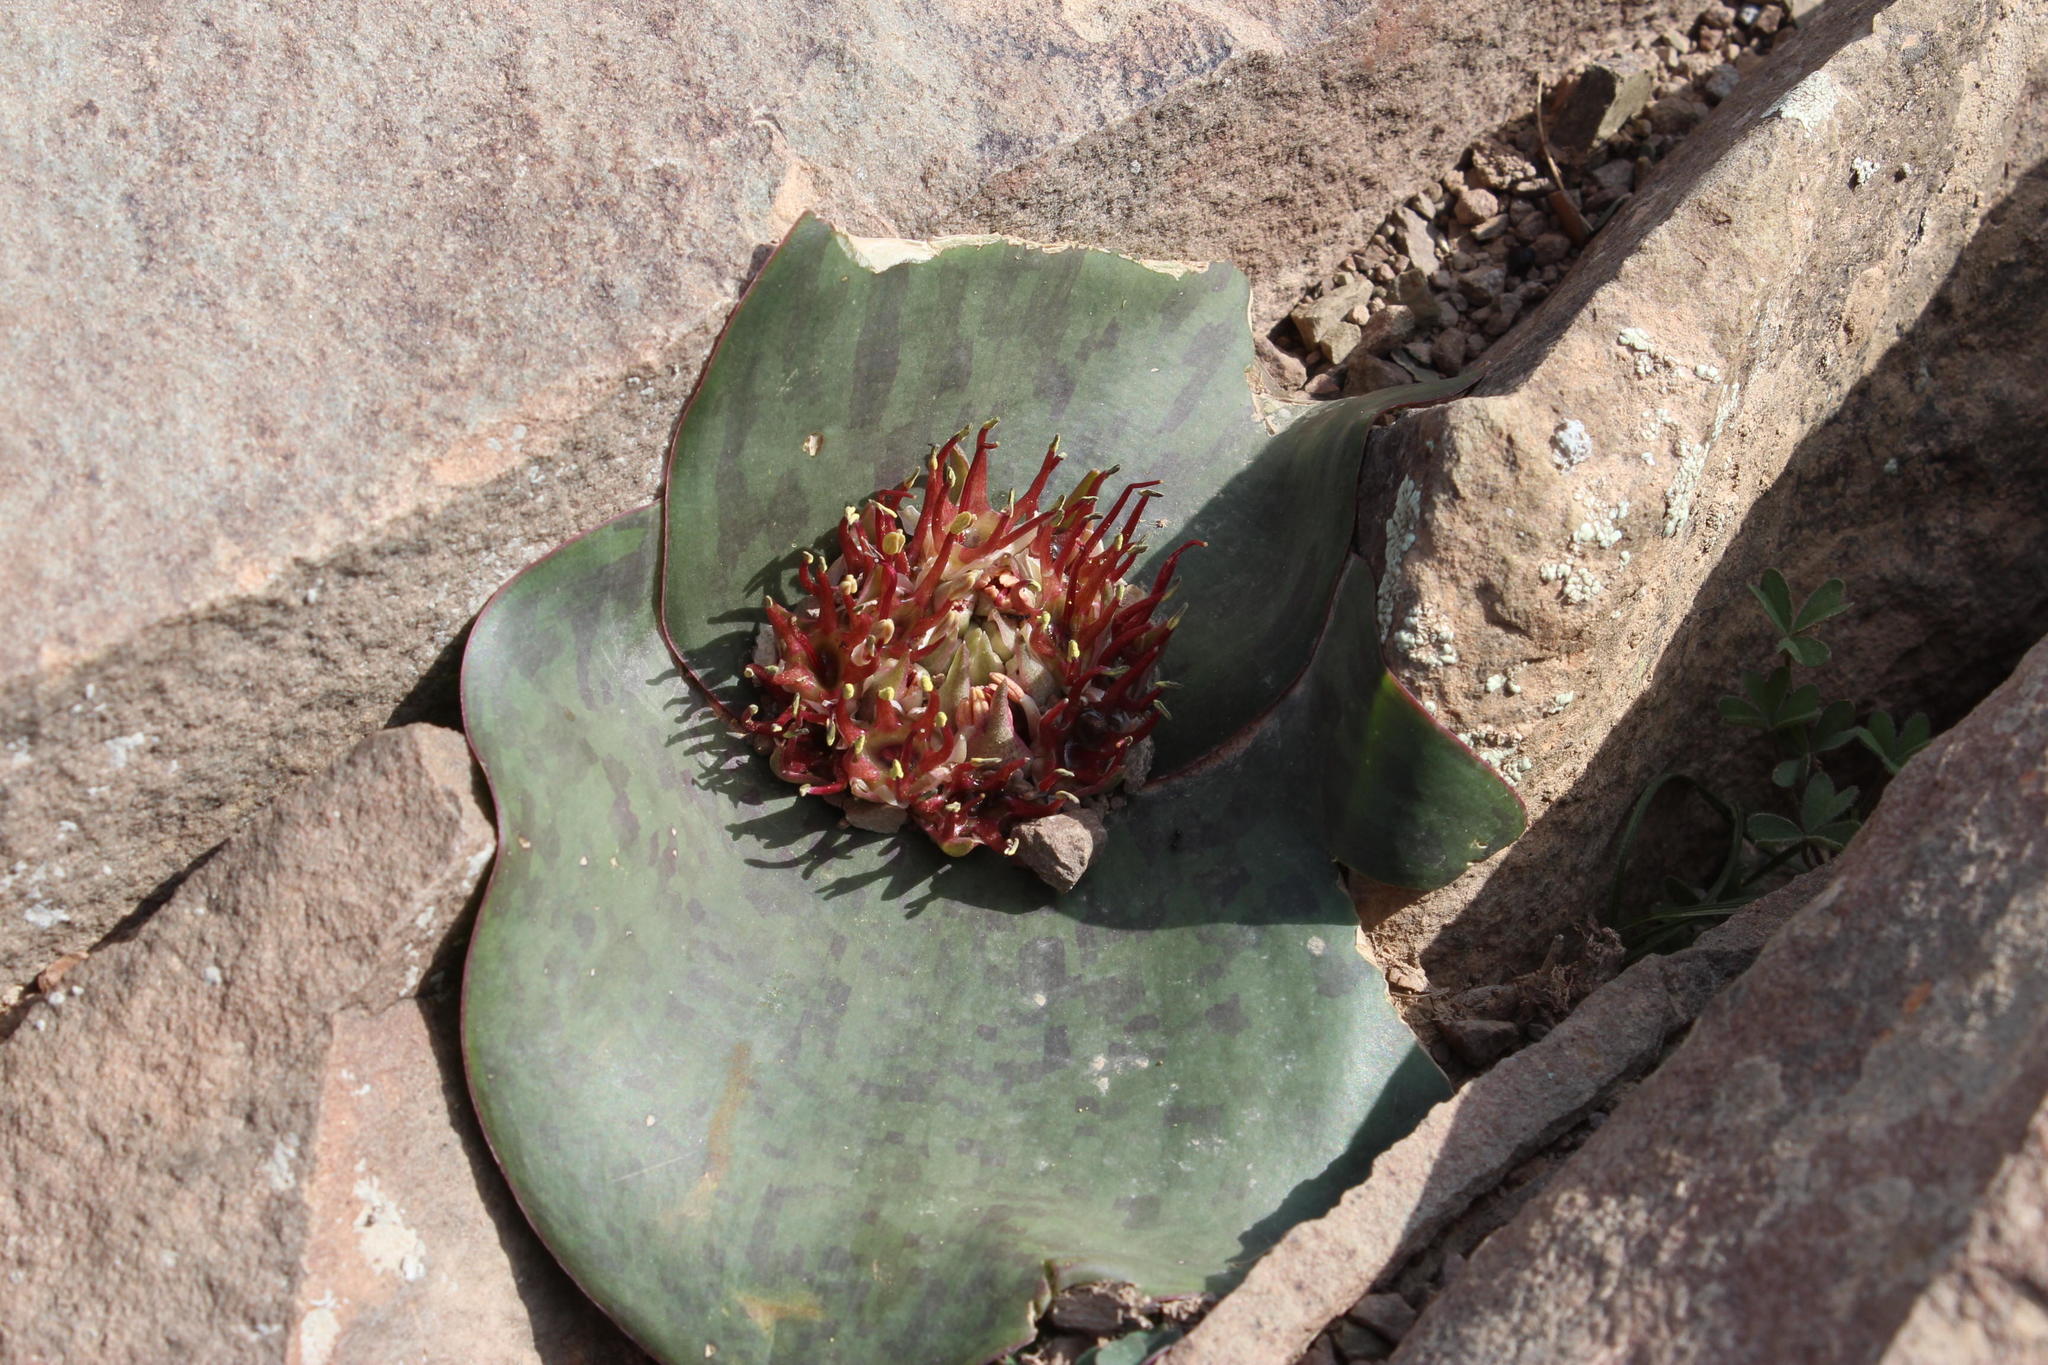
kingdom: Plantae
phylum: Tracheophyta
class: Liliopsida
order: Asparagales
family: Asparagaceae
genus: Massonia
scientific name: Massonia depressa
